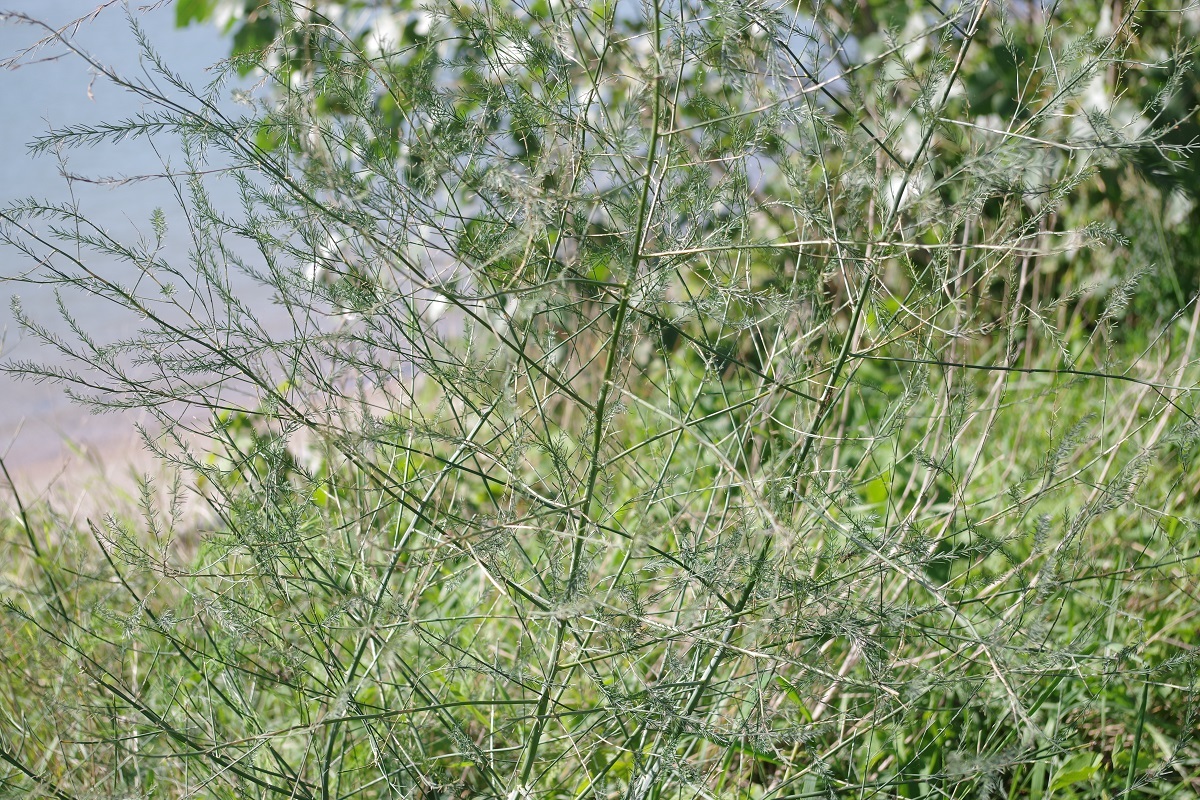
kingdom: Plantae
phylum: Tracheophyta
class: Liliopsida
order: Asparagales
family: Asparagaceae
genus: Asparagus
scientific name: Asparagus officinalis
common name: Garden asparagus
